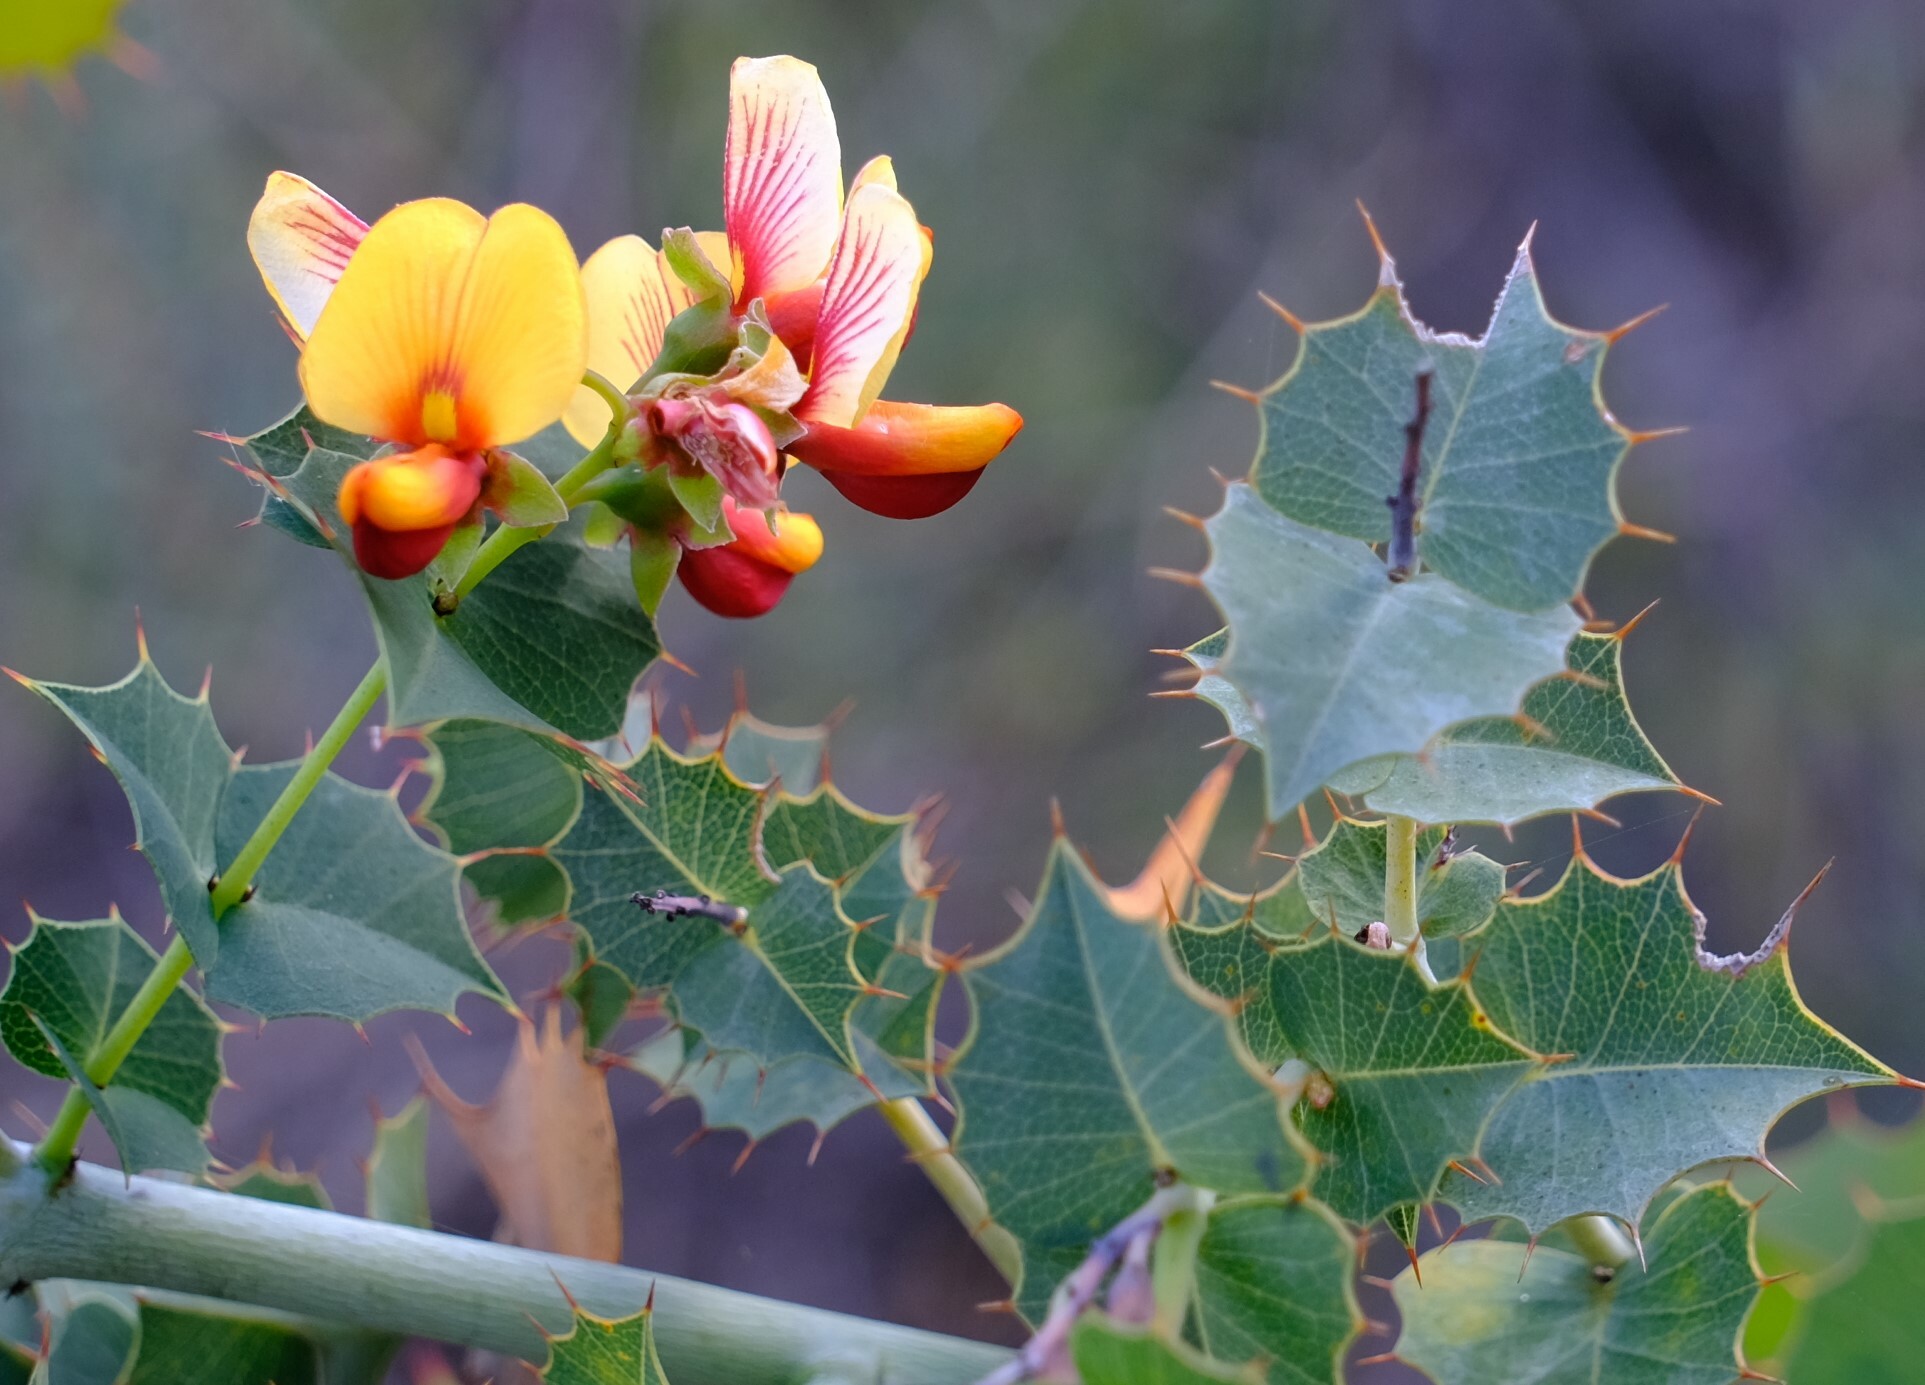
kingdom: Plantae
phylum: Tracheophyta
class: Magnoliopsida
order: Fabales
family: Fabaceae
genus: Gastrolobium
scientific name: Gastrolobium spinosum
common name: Prickly poison
